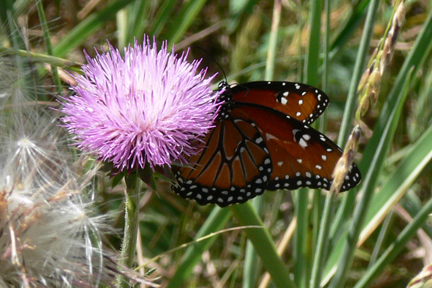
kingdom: Animalia
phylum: Arthropoda
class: Insecta
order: Lepidoptera
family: Nymphalidae
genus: Danaus
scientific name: Danaus gilippus
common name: Queen
